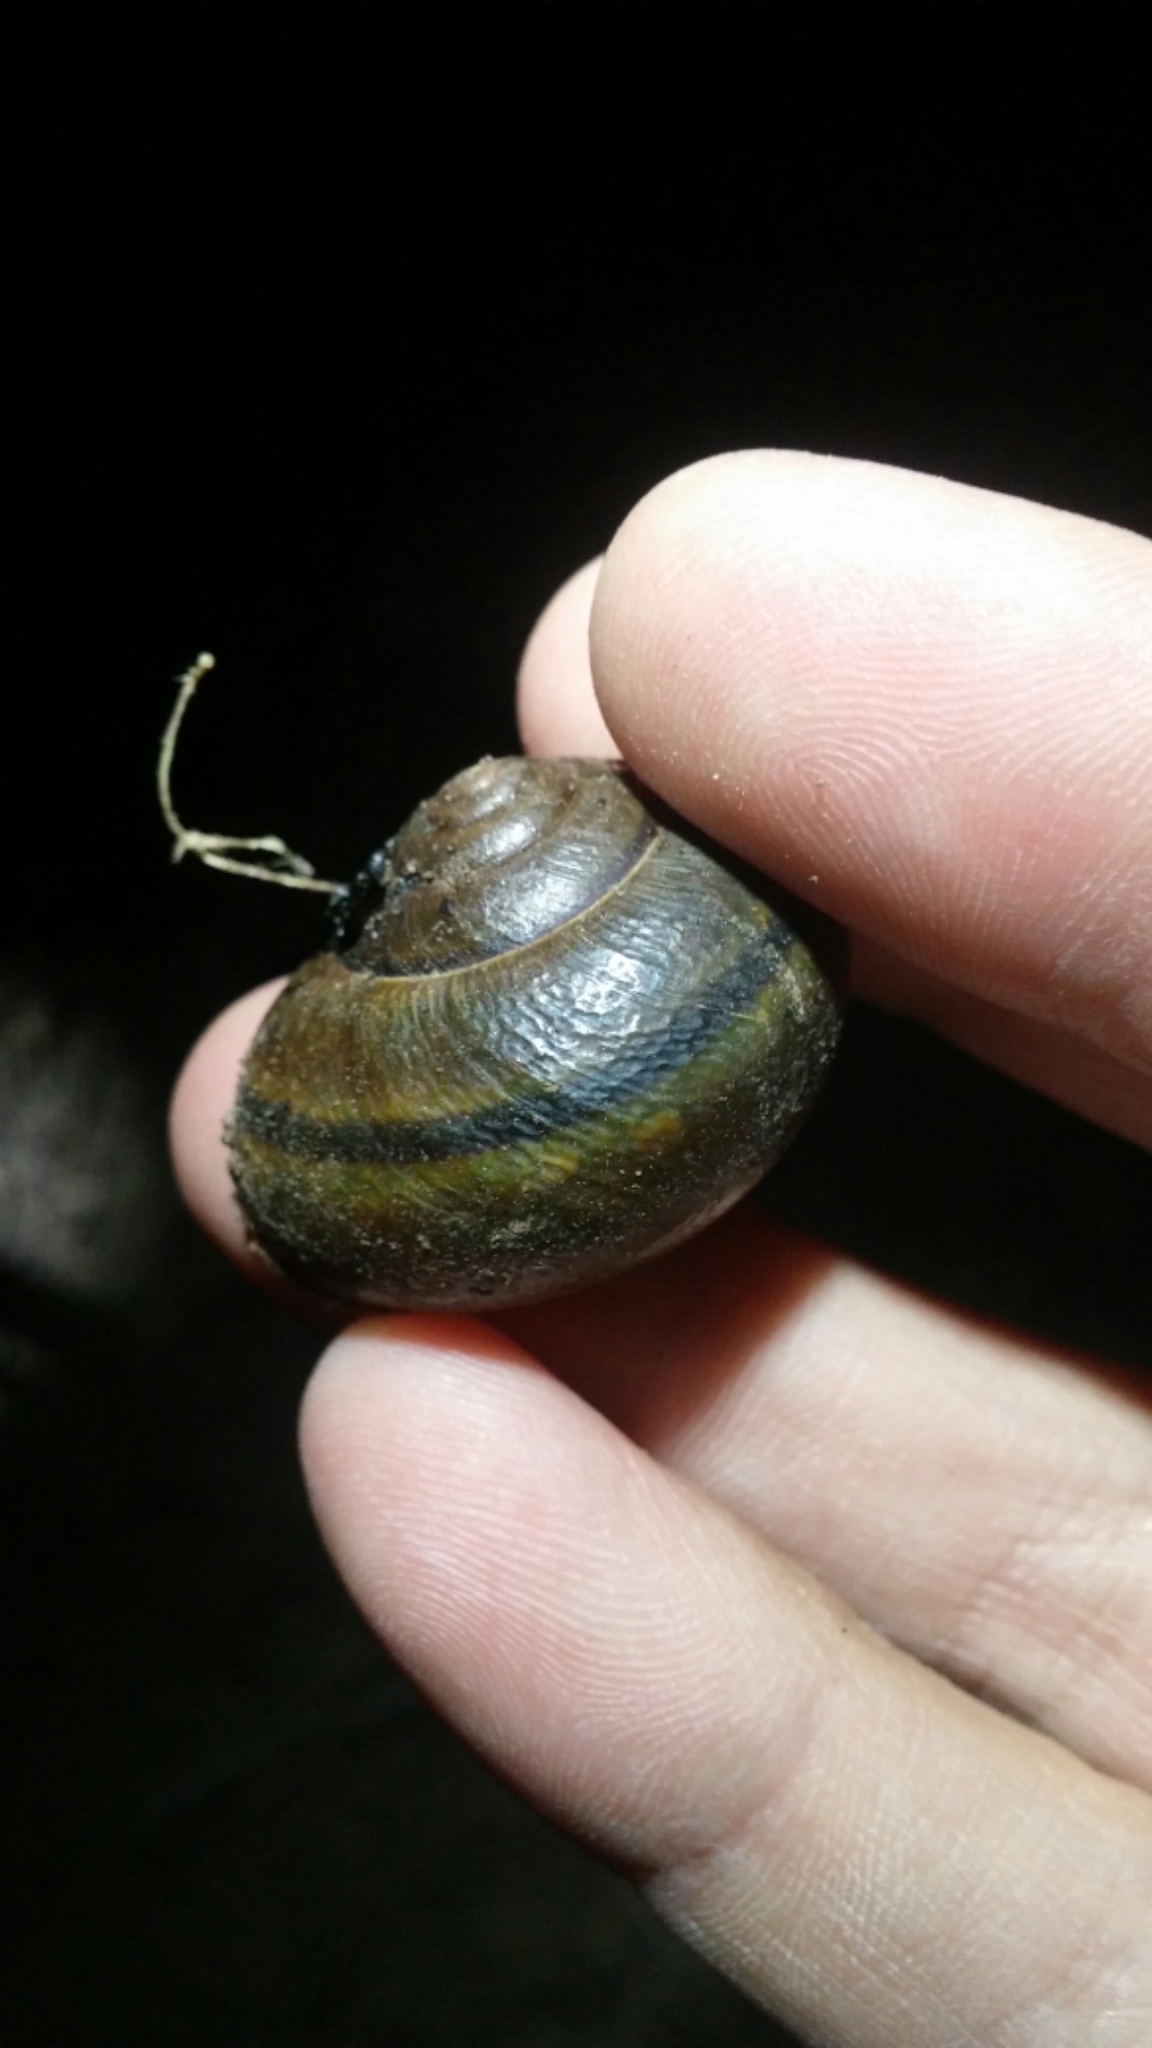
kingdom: Animalia
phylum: Mollusca
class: Gastropoda
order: Stylommatophora
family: Xanthonychidae
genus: Helminthoglypta
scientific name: Helminthoglypta tudiculata
